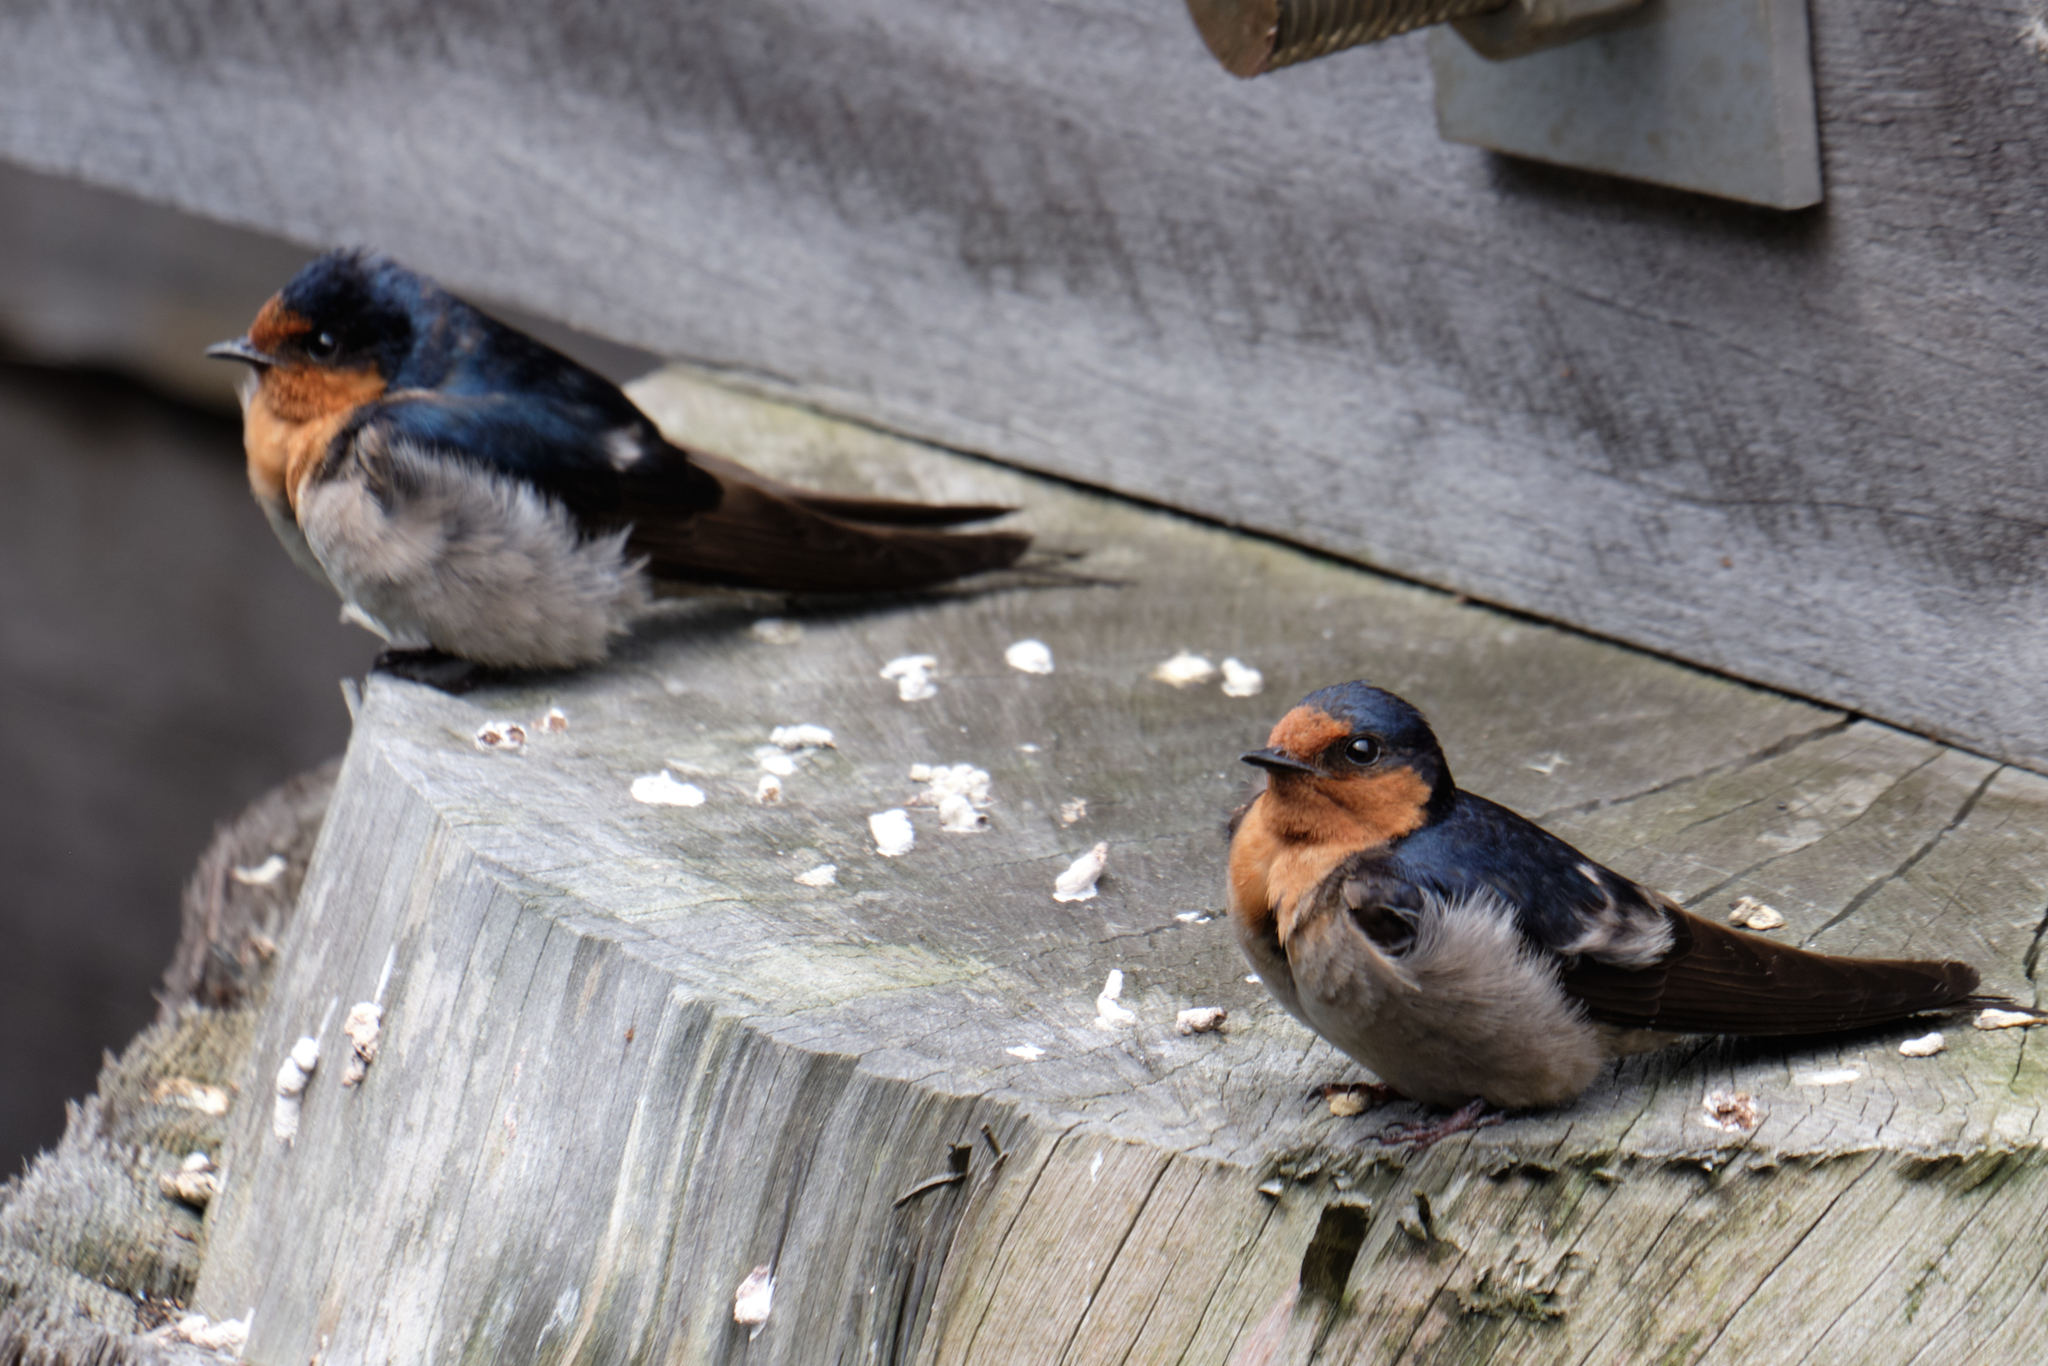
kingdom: Animalia
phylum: Chordata
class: Aves
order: Passeriformes
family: Hirundinidae
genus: Hirundo
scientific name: Hirundo neoxena
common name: Welcome swallow
